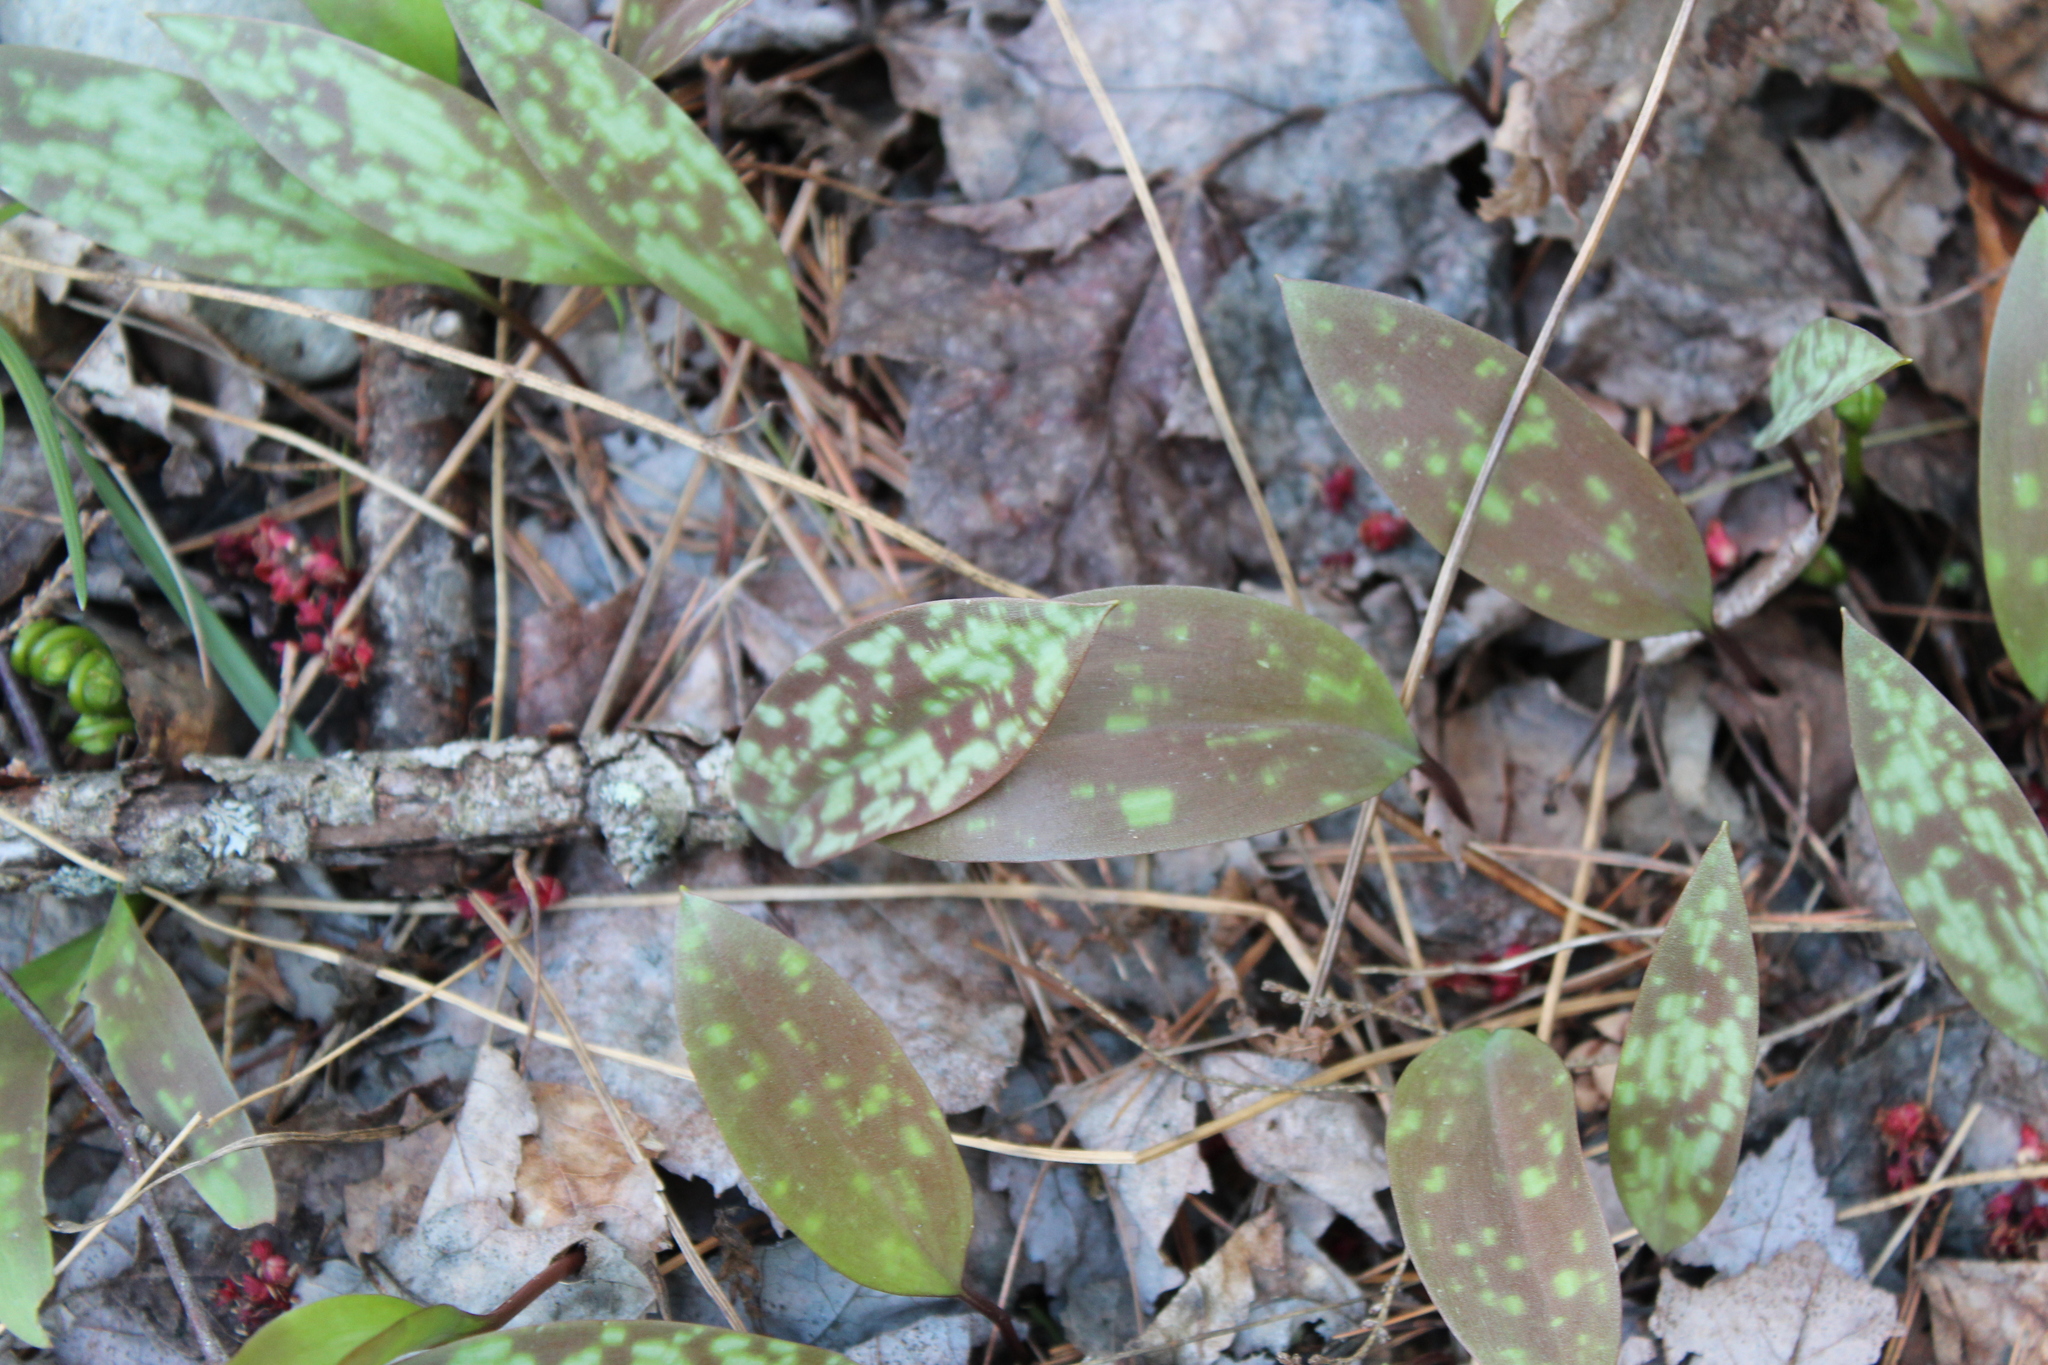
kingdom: Plantae
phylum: Tracheophyta
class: Liliopsida
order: Liliales
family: Liliaceae
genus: Erythronium
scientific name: Erythronium americanum
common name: Yellow adder's-tongue
